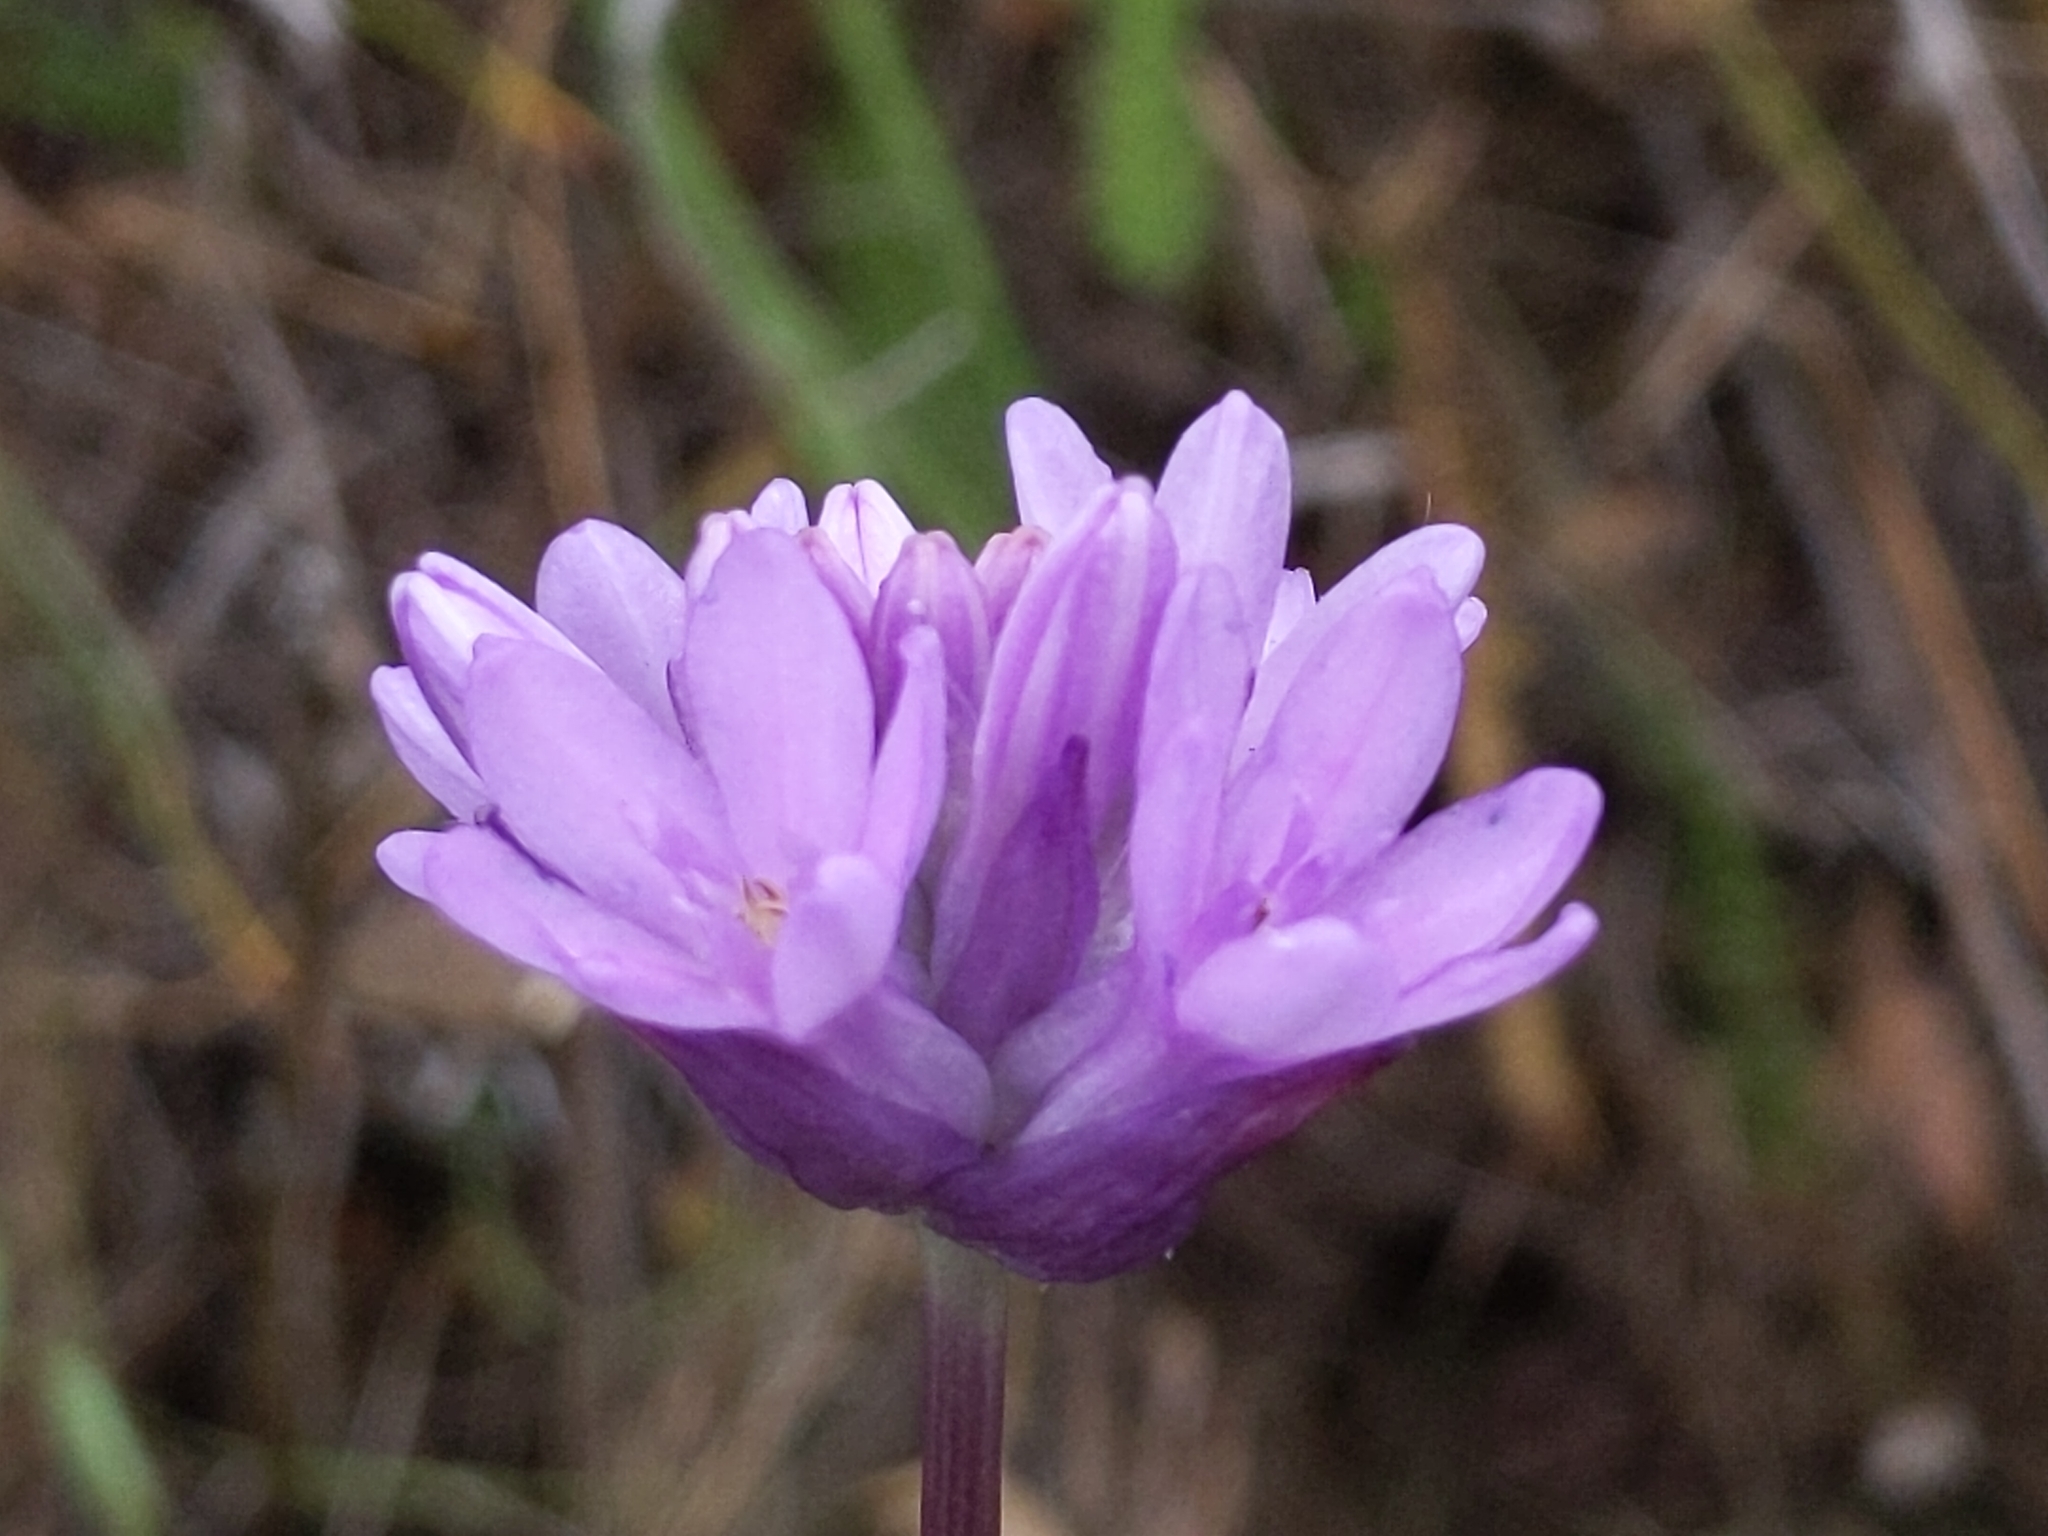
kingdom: Plantae
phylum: Tracheophyta
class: Liliopsida
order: Asparagales
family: Asparagaceae
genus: Dichelostemma
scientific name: Dichelostemma congestum
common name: Fork-tooth ookow
